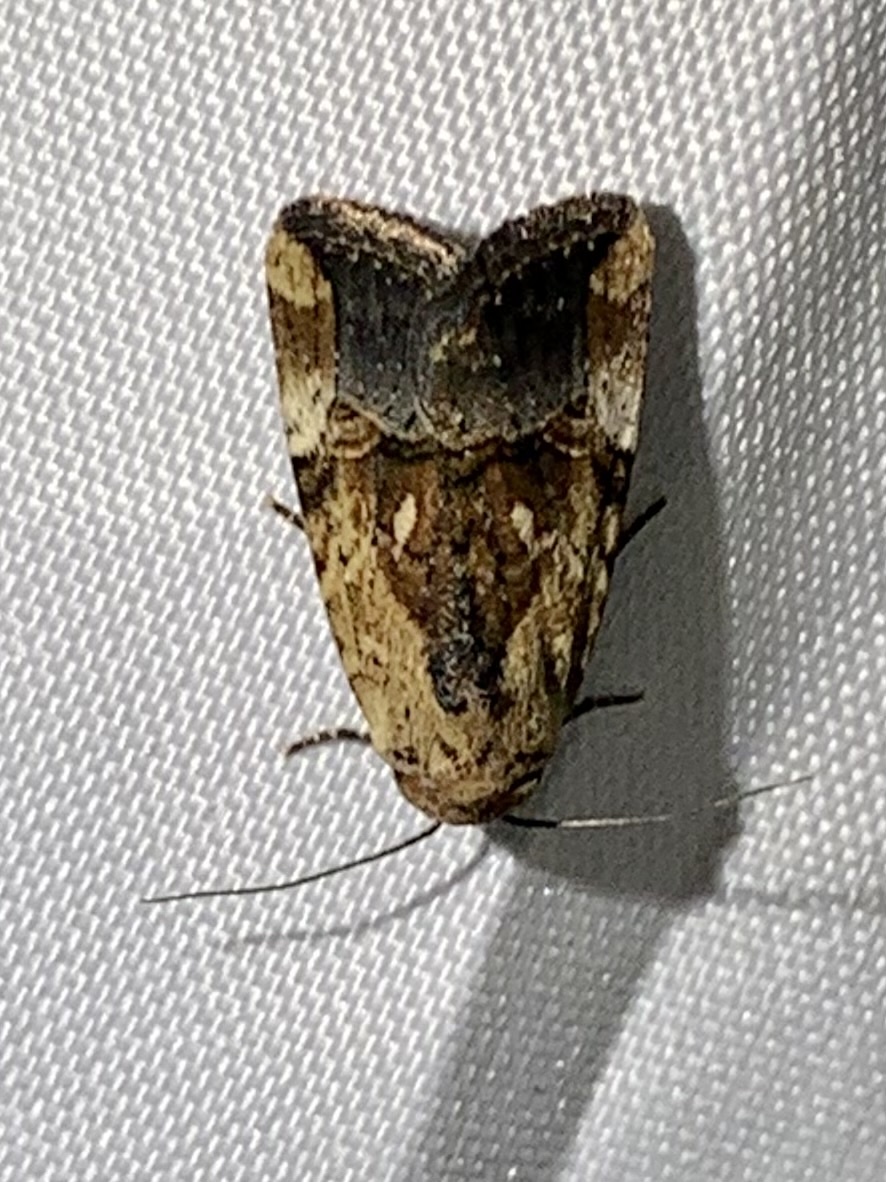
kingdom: Animalia
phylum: Arthropoda
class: Insecta
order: Lepidoptera
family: Noctuidae
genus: Elaphria
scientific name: Elaphria agrotina
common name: Agrotina midget
